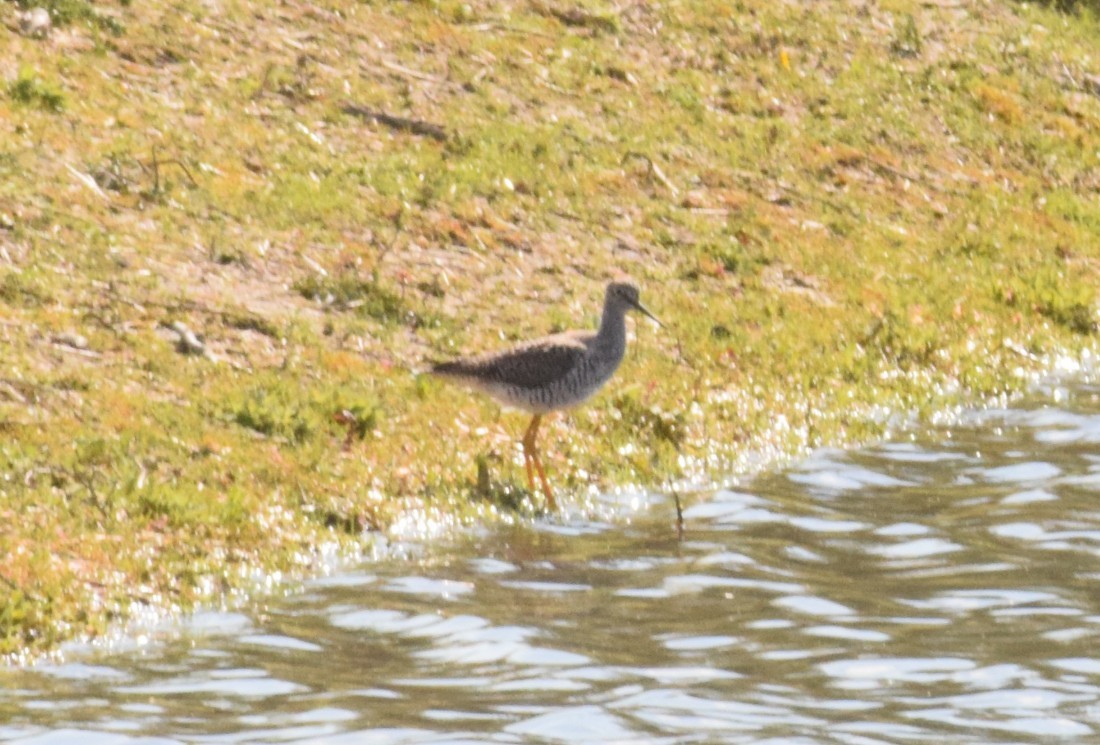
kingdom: Animalia
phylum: Chordata
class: Aves
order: Charadriiformes
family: Scolopacidae
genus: Tringa
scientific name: Tringa
